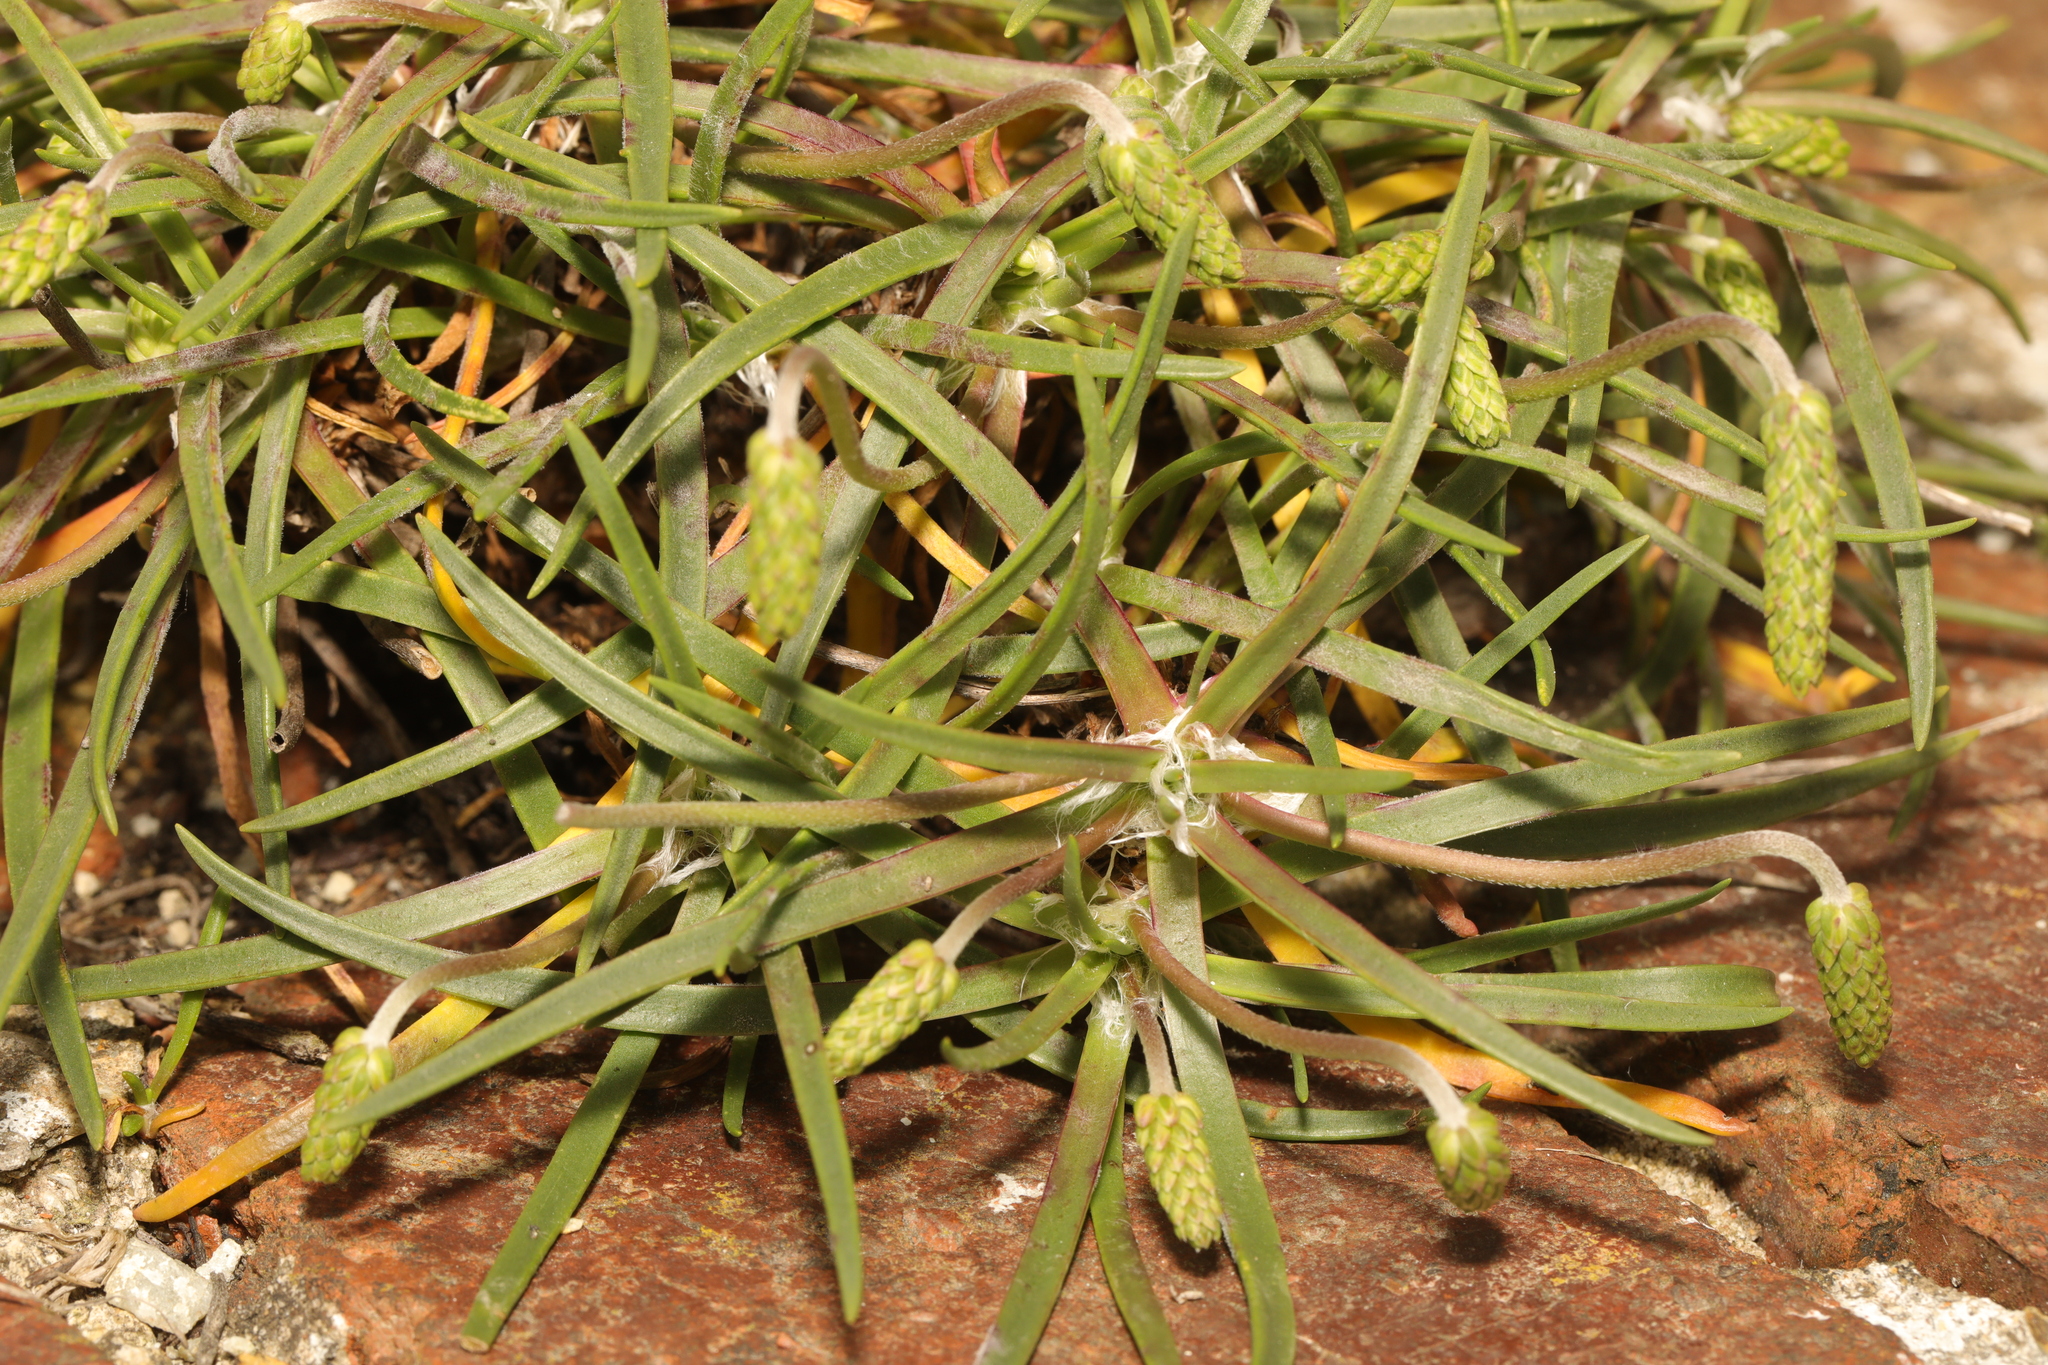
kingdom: Plantae
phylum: Tracheophyta
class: Magnoliopsida
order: Lamiales
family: Plantaginaceae
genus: Plantago
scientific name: Plantago maritima
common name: Sea plantain
